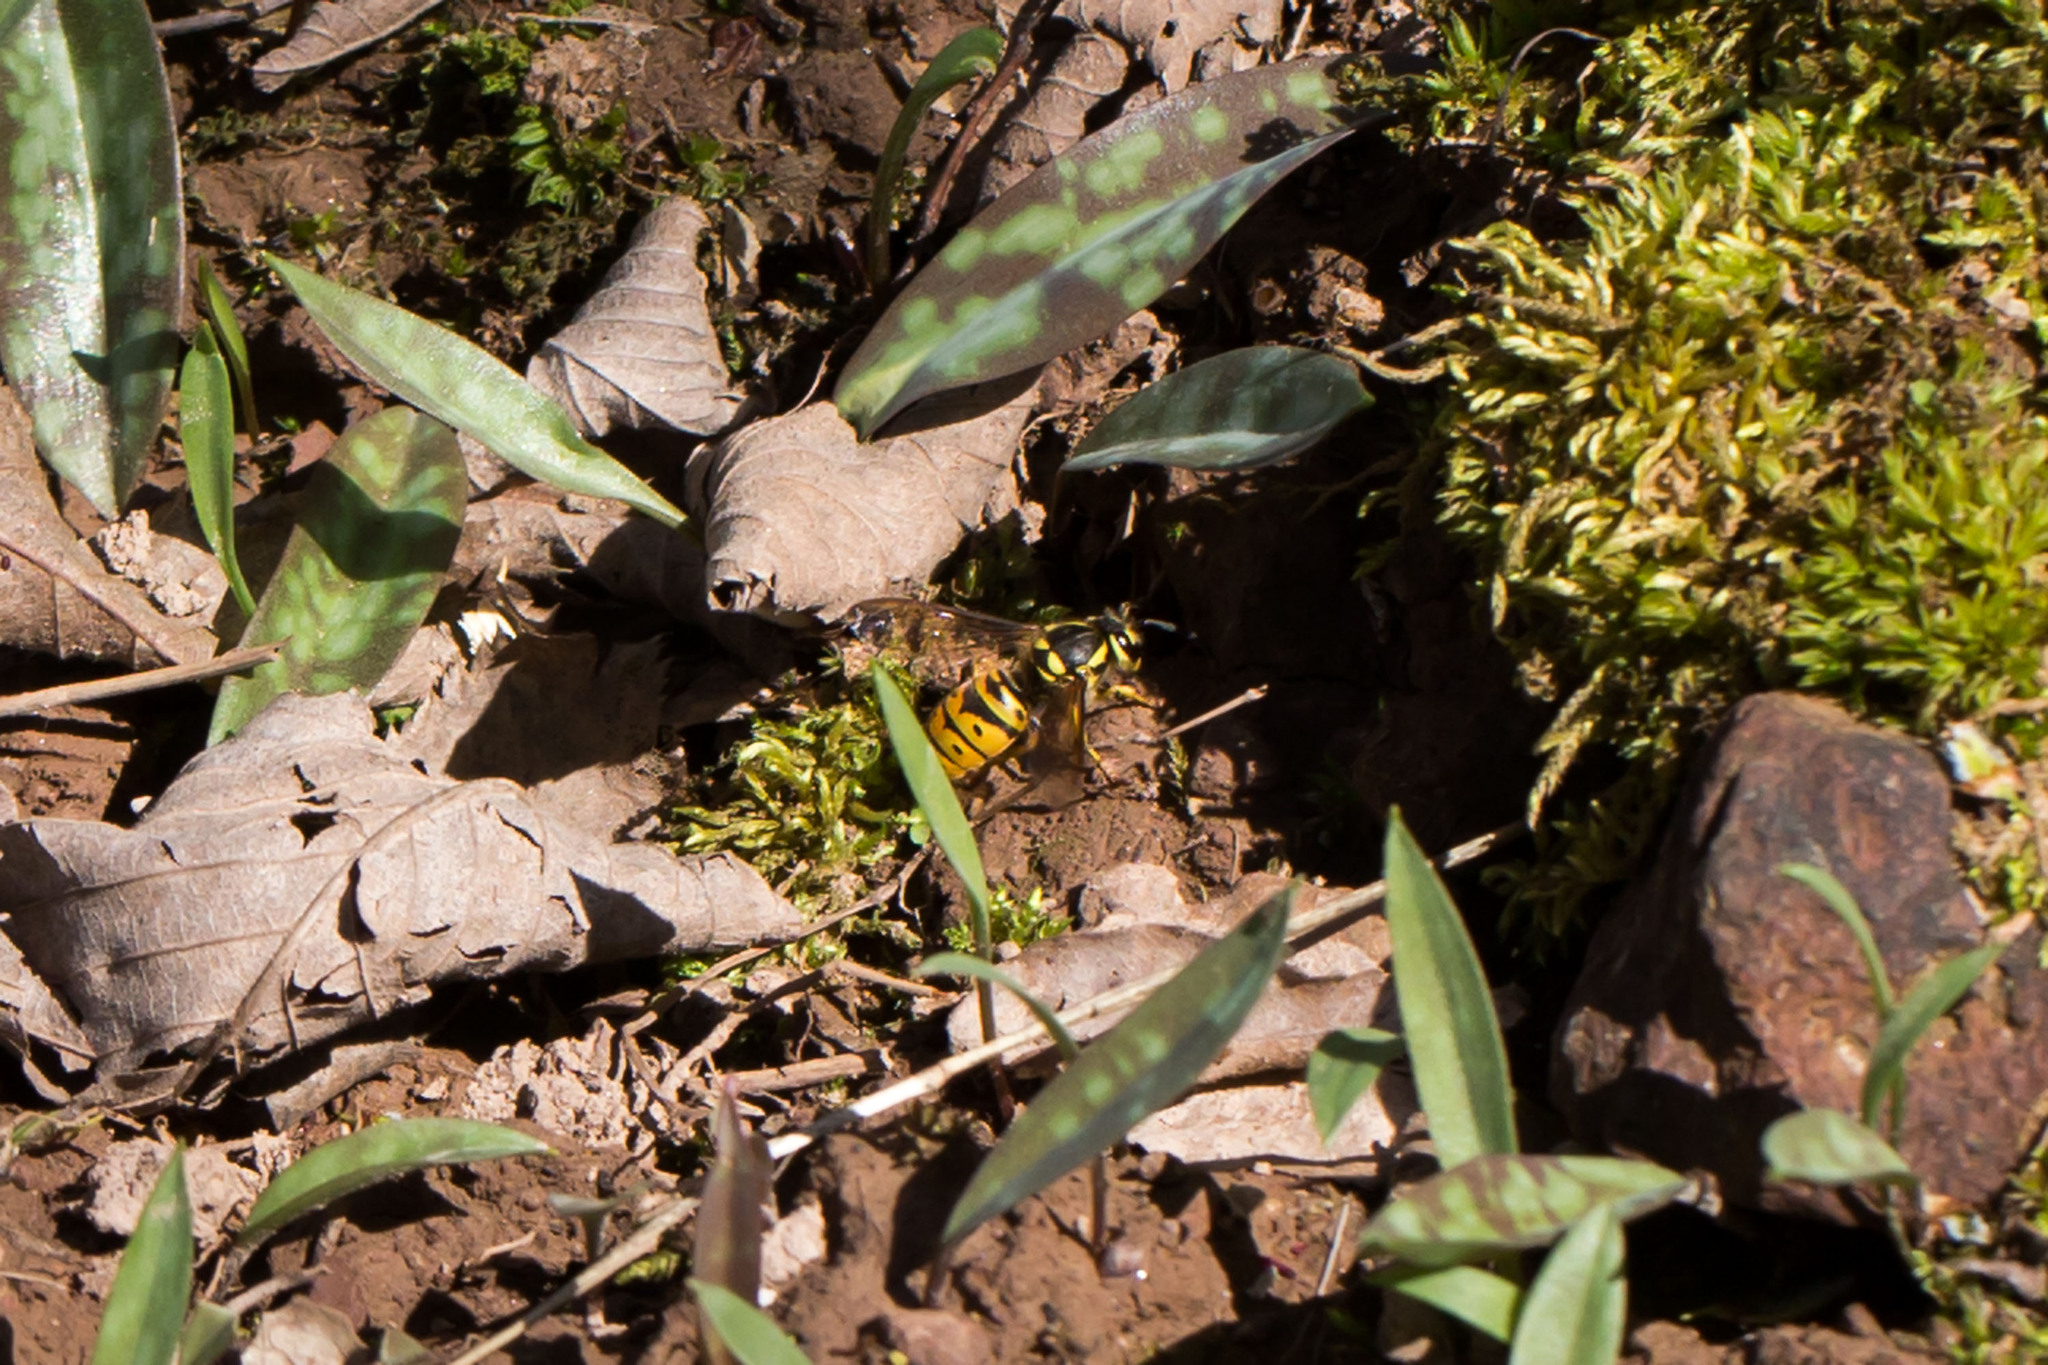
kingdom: Animalia
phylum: Arthropoda
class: Insecta
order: Hymenoptera
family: Vespidae
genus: Vespula
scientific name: Vespula maculifrons
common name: Eastern yellowjacket
